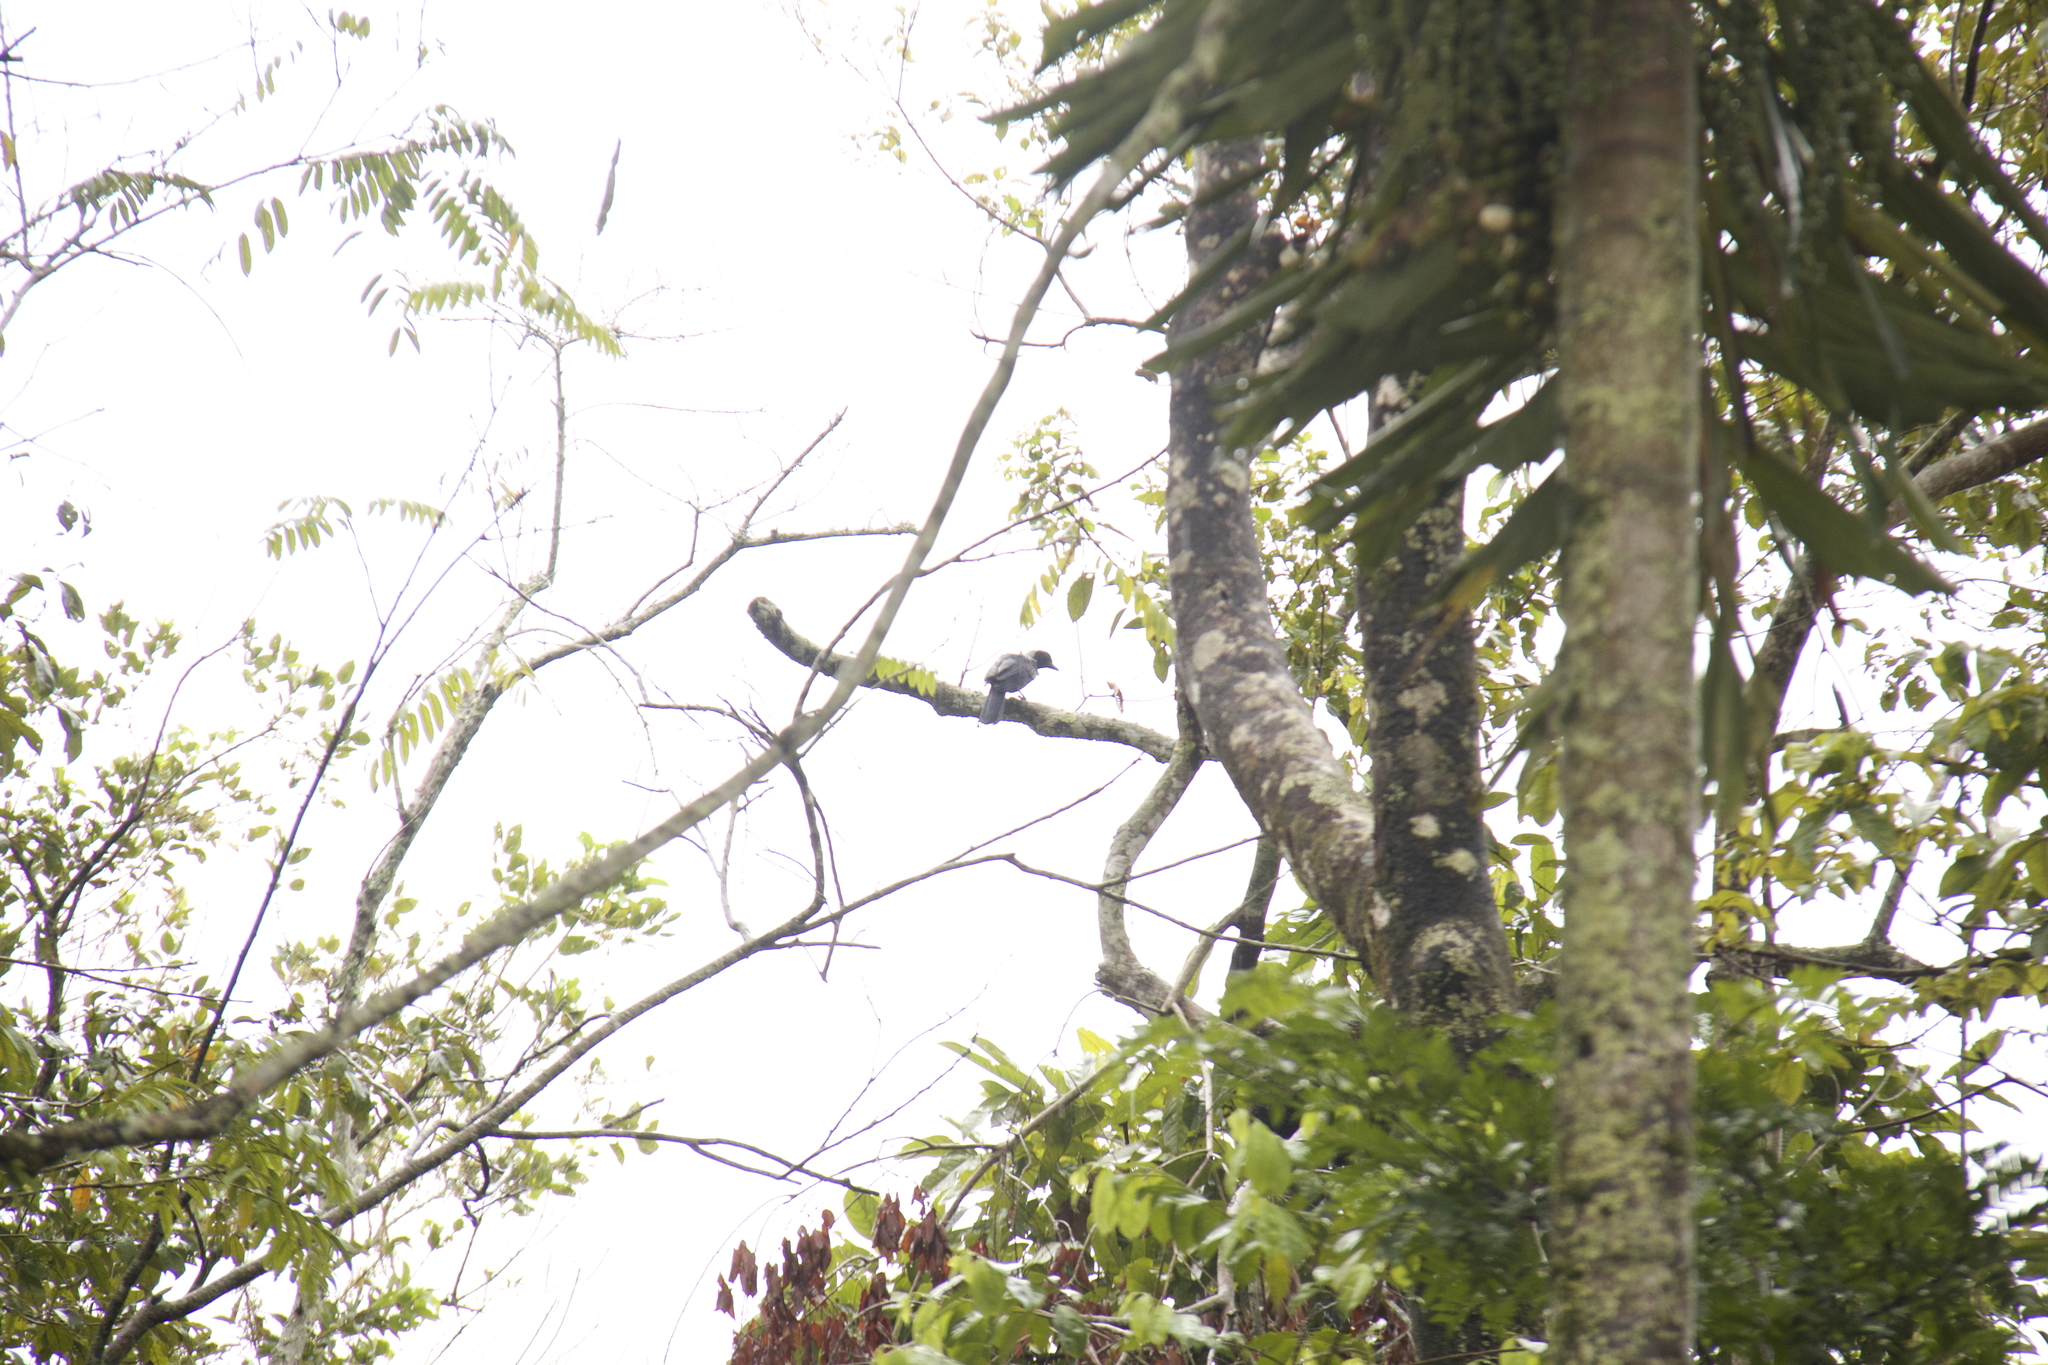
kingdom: Animalia
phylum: Chordata
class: Aves
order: Passeriformes
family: Corvidae
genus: Cyanocorax
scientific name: Cyanocorax violaceus
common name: Violaceous jay
